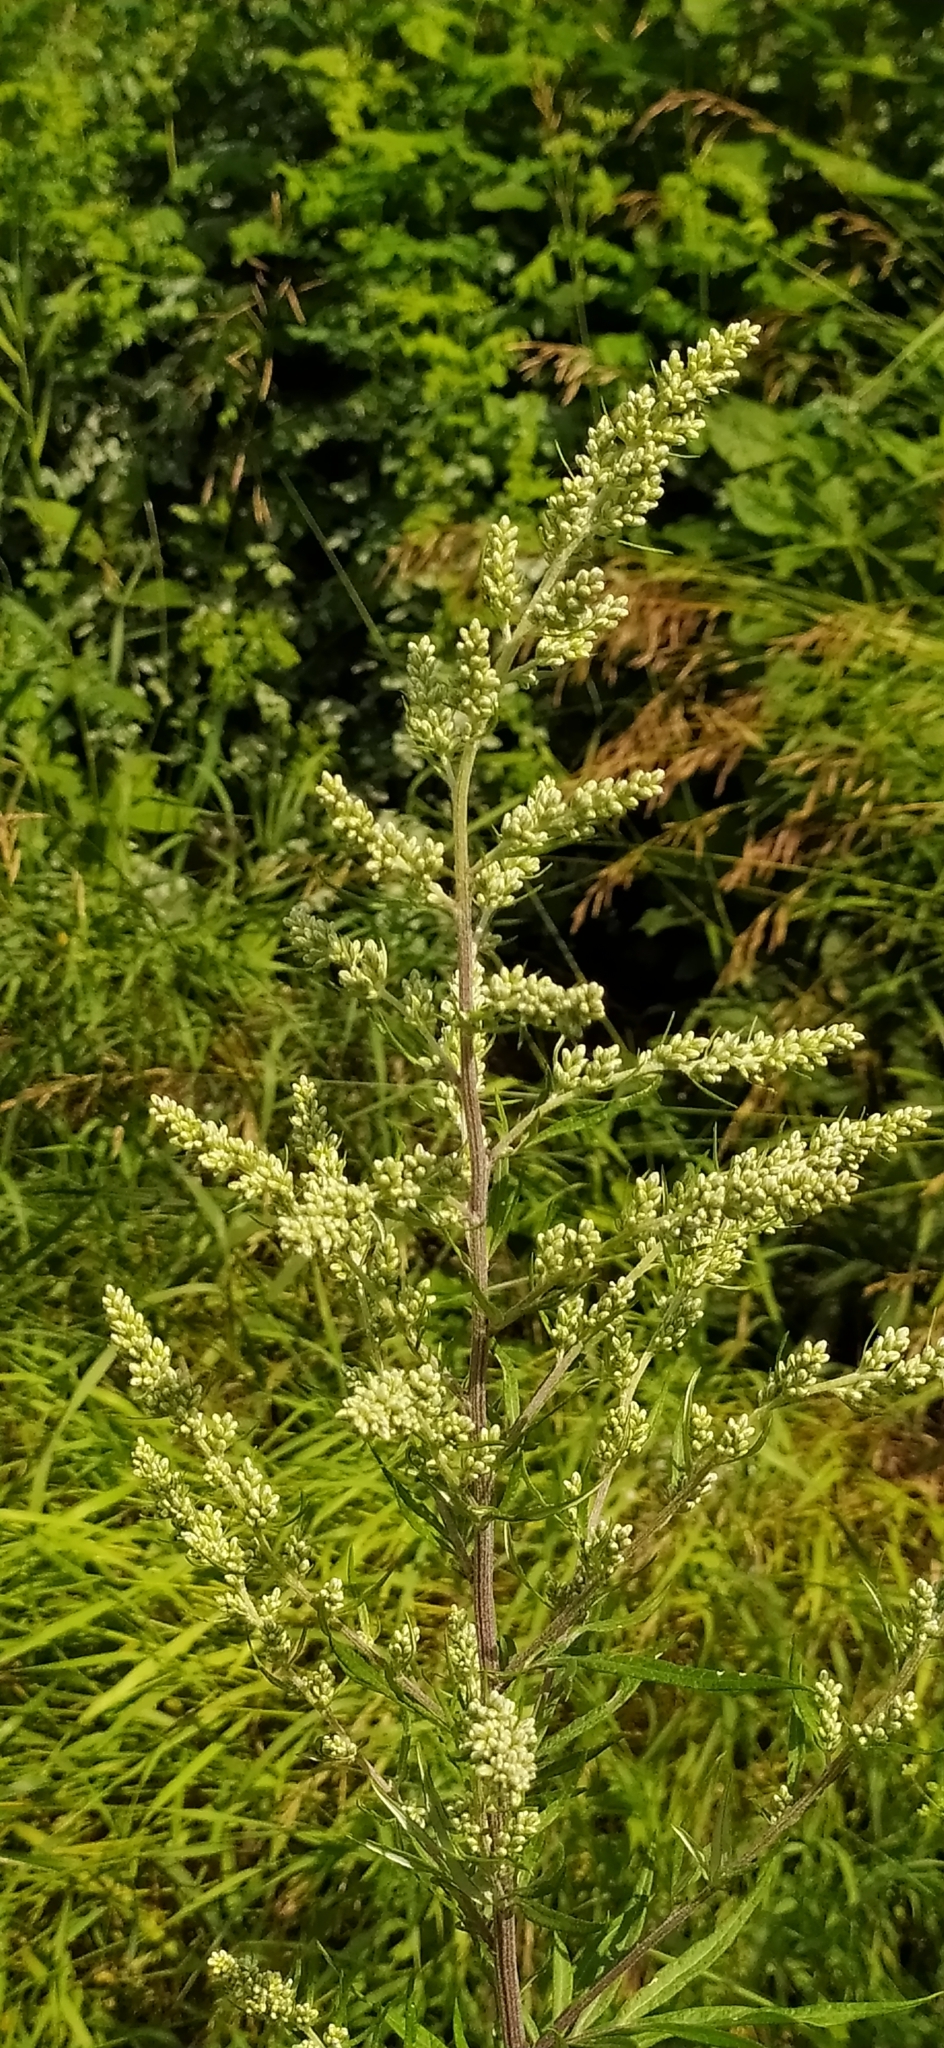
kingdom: Plantae
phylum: Tracheophyta
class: Magnoliopsida
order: Asterales
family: Asteraceae
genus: Artemisia
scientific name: Artemisia vulgaris
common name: Mugwort
